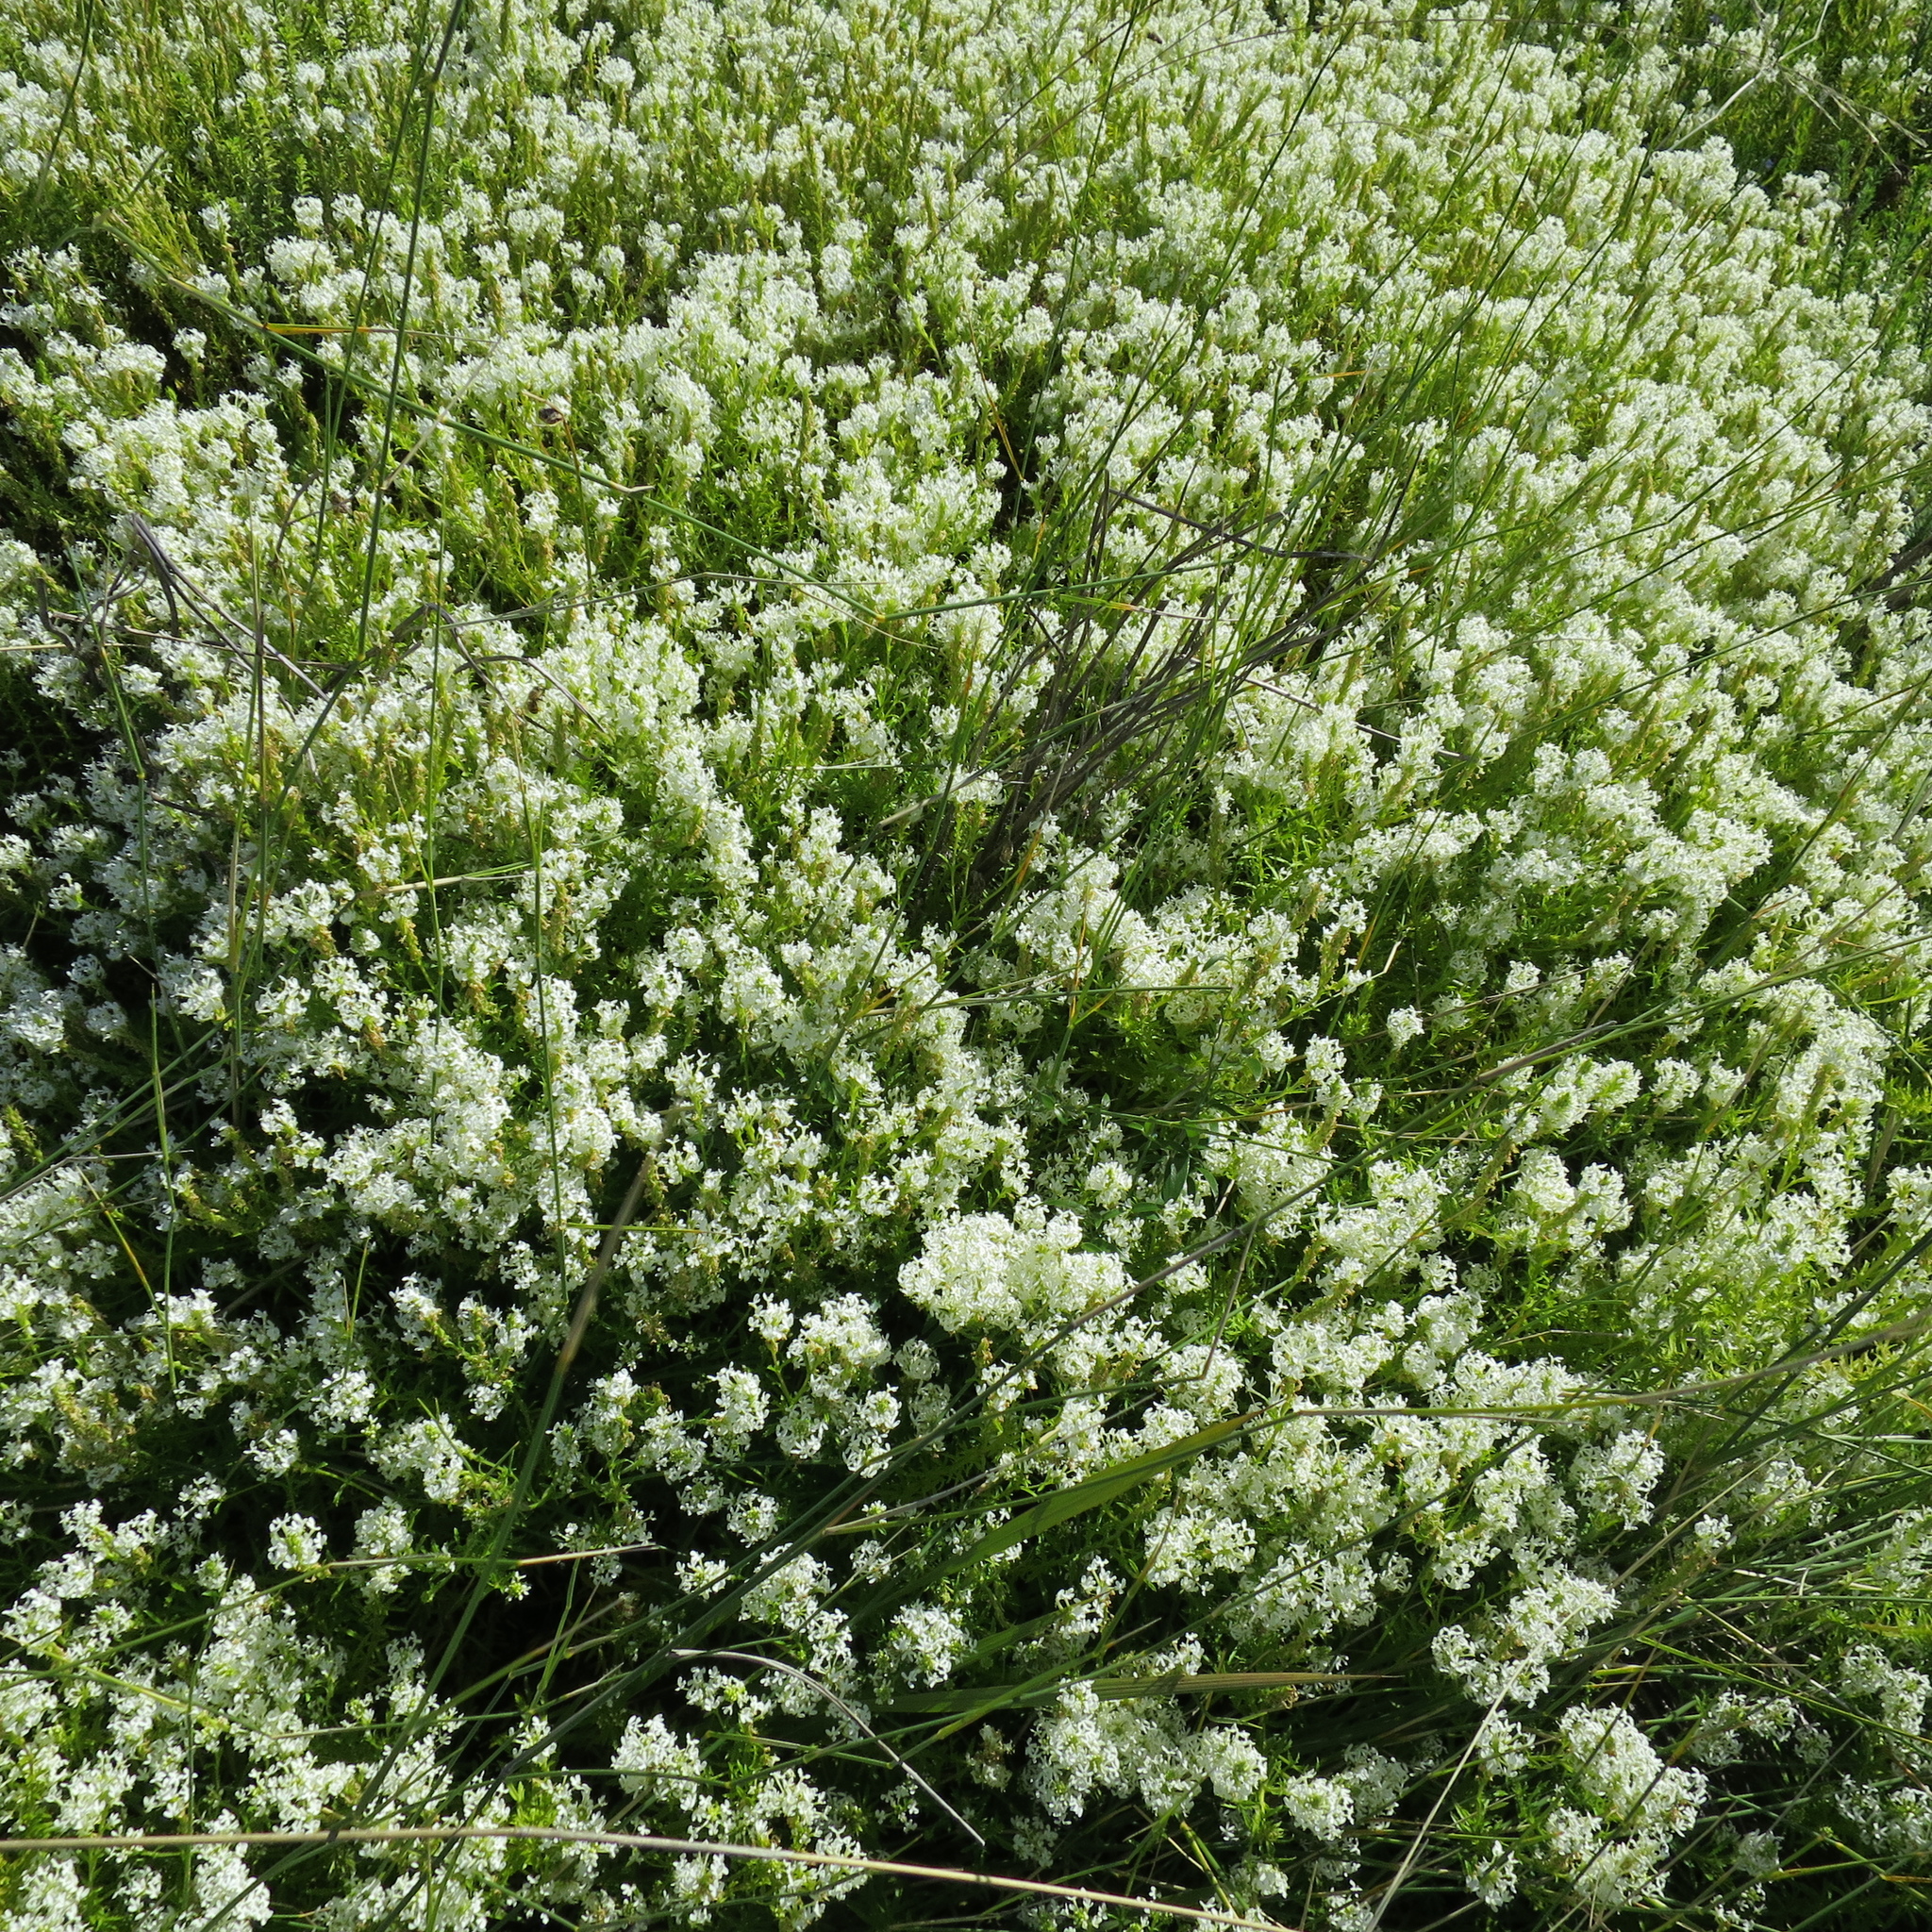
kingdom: Plantae
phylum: Tracheophyta
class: Magnoliopsida
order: Lamiales
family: Scrophulariaceae
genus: Dischisma
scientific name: Dischisma ciliatum
